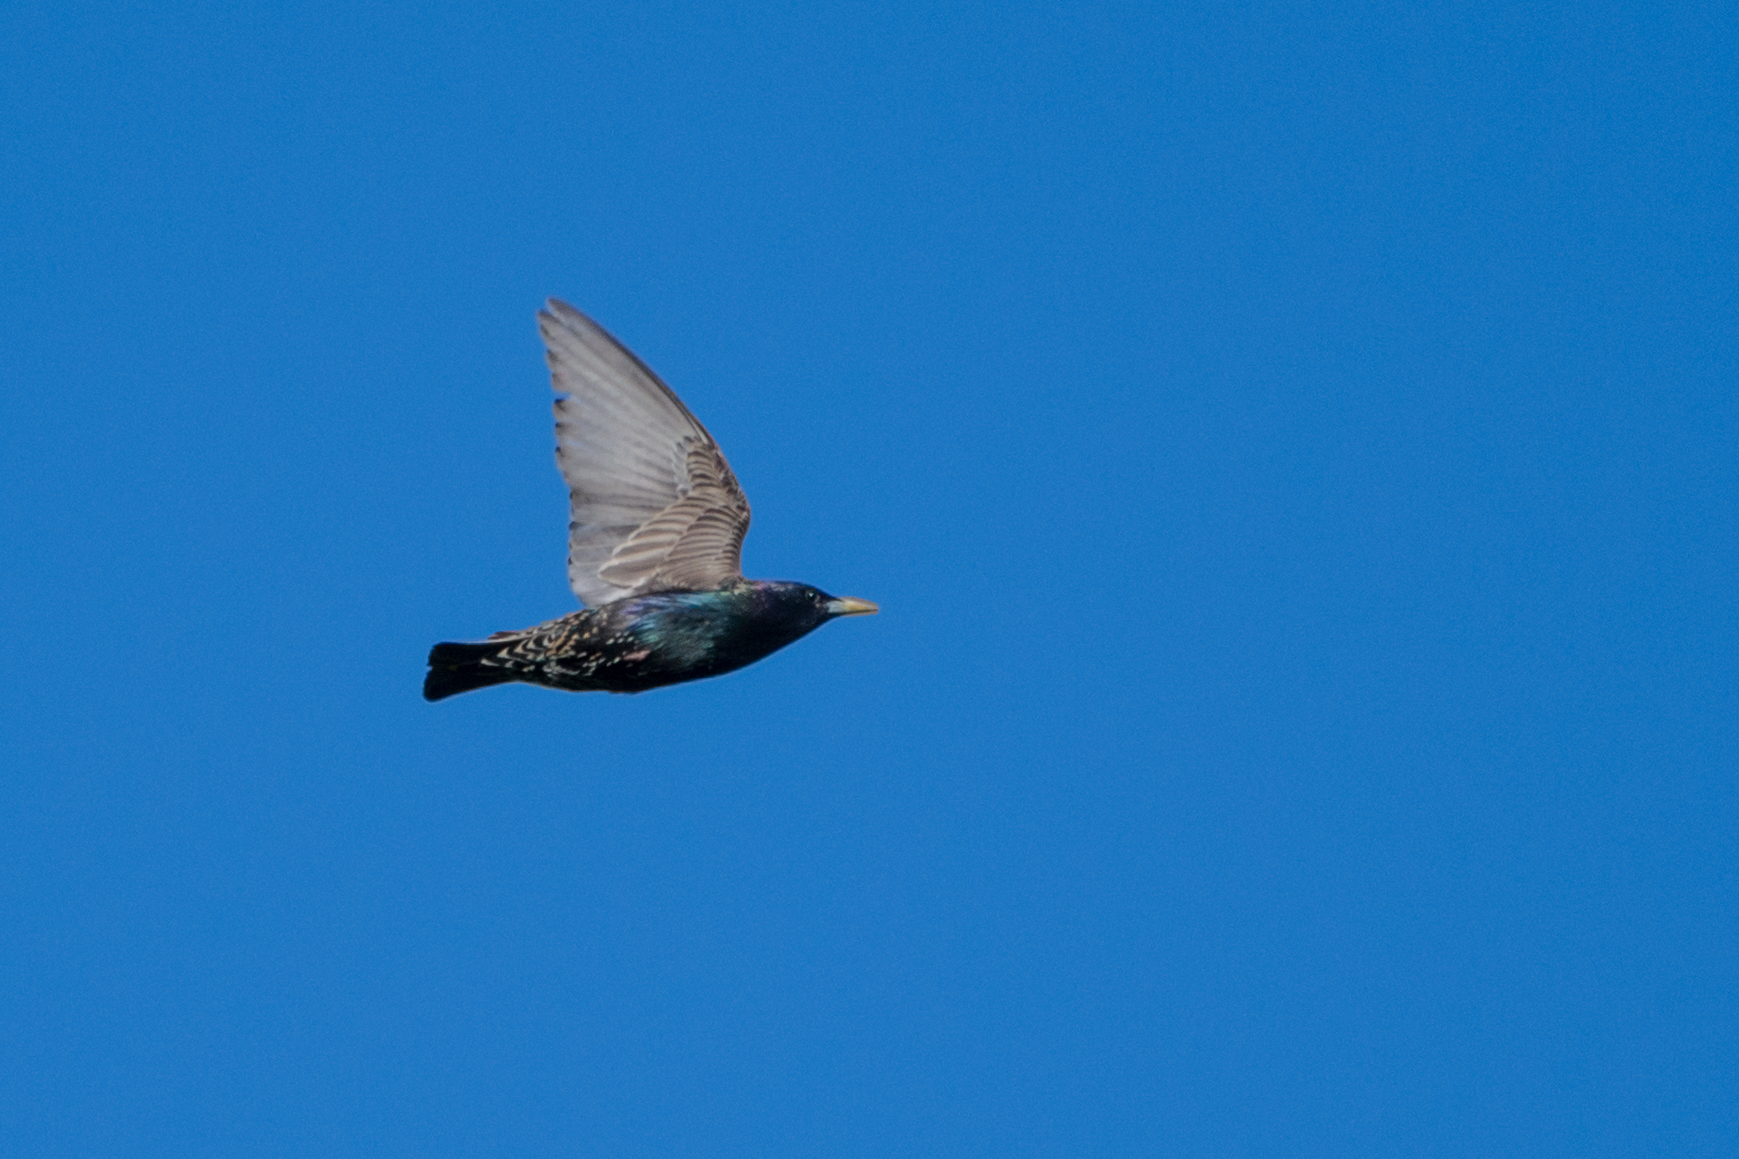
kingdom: Animalia
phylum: Chordata
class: Aves
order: Passeriformes
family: Sturnidae
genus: Sturnus
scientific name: Sturnus vulgaris
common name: Common starling
